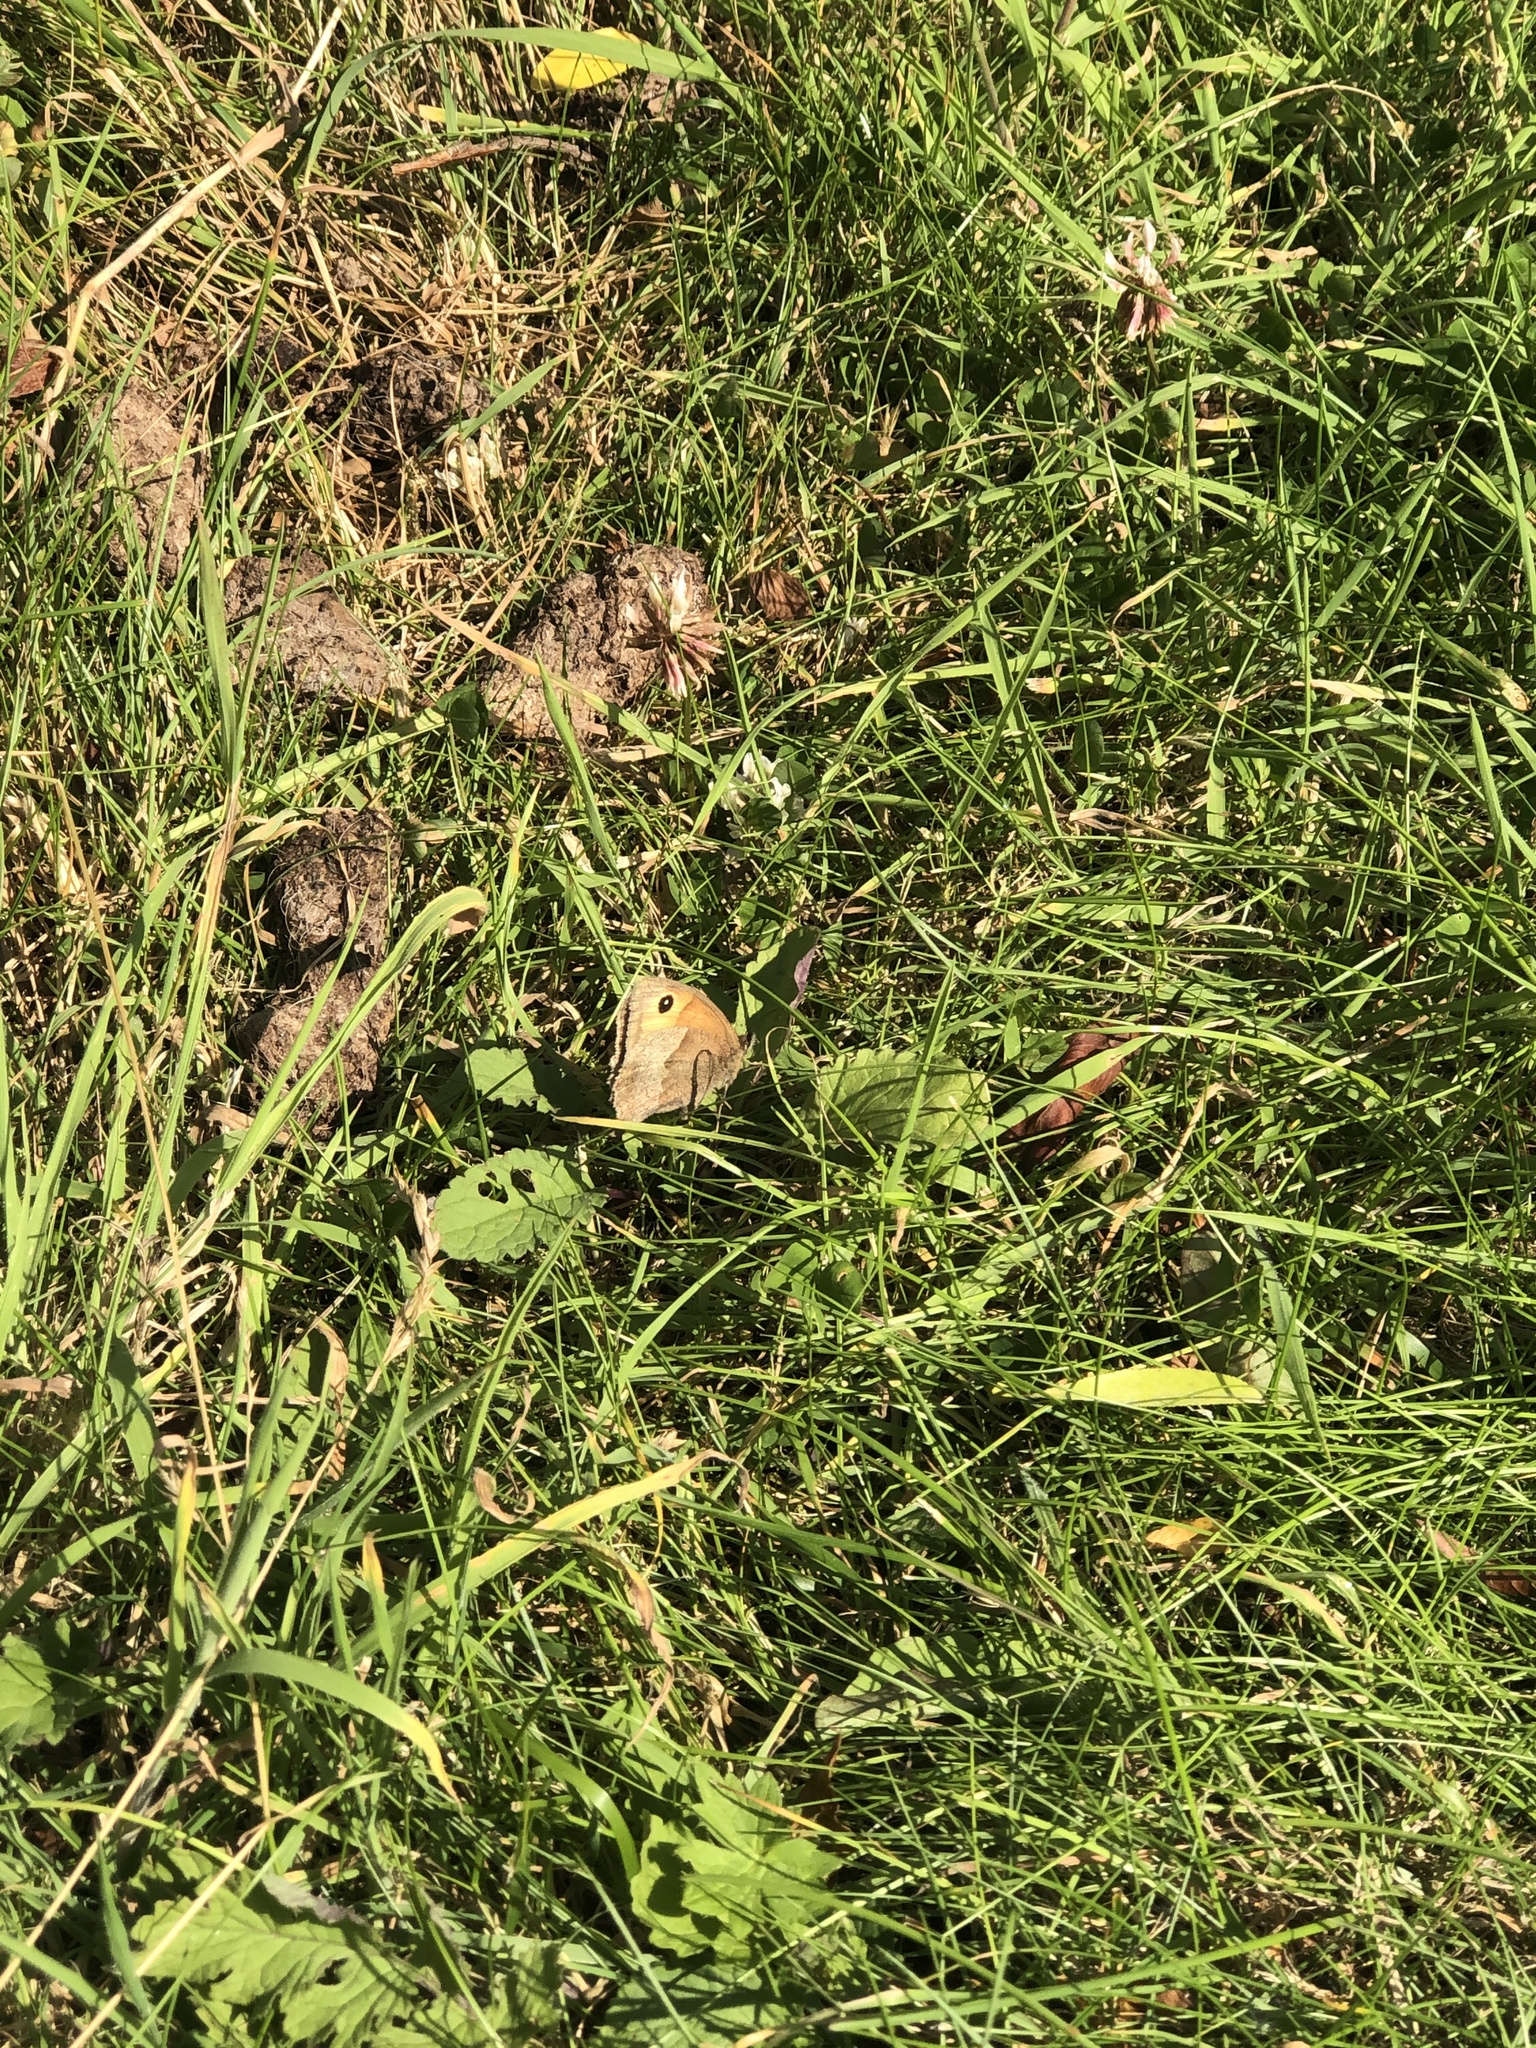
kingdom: Animalia
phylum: Arthropoda
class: Insecta
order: Lepidoptera
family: Nymphalidae
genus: Maniola
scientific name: Maniola jurtina
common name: Meadow brown
